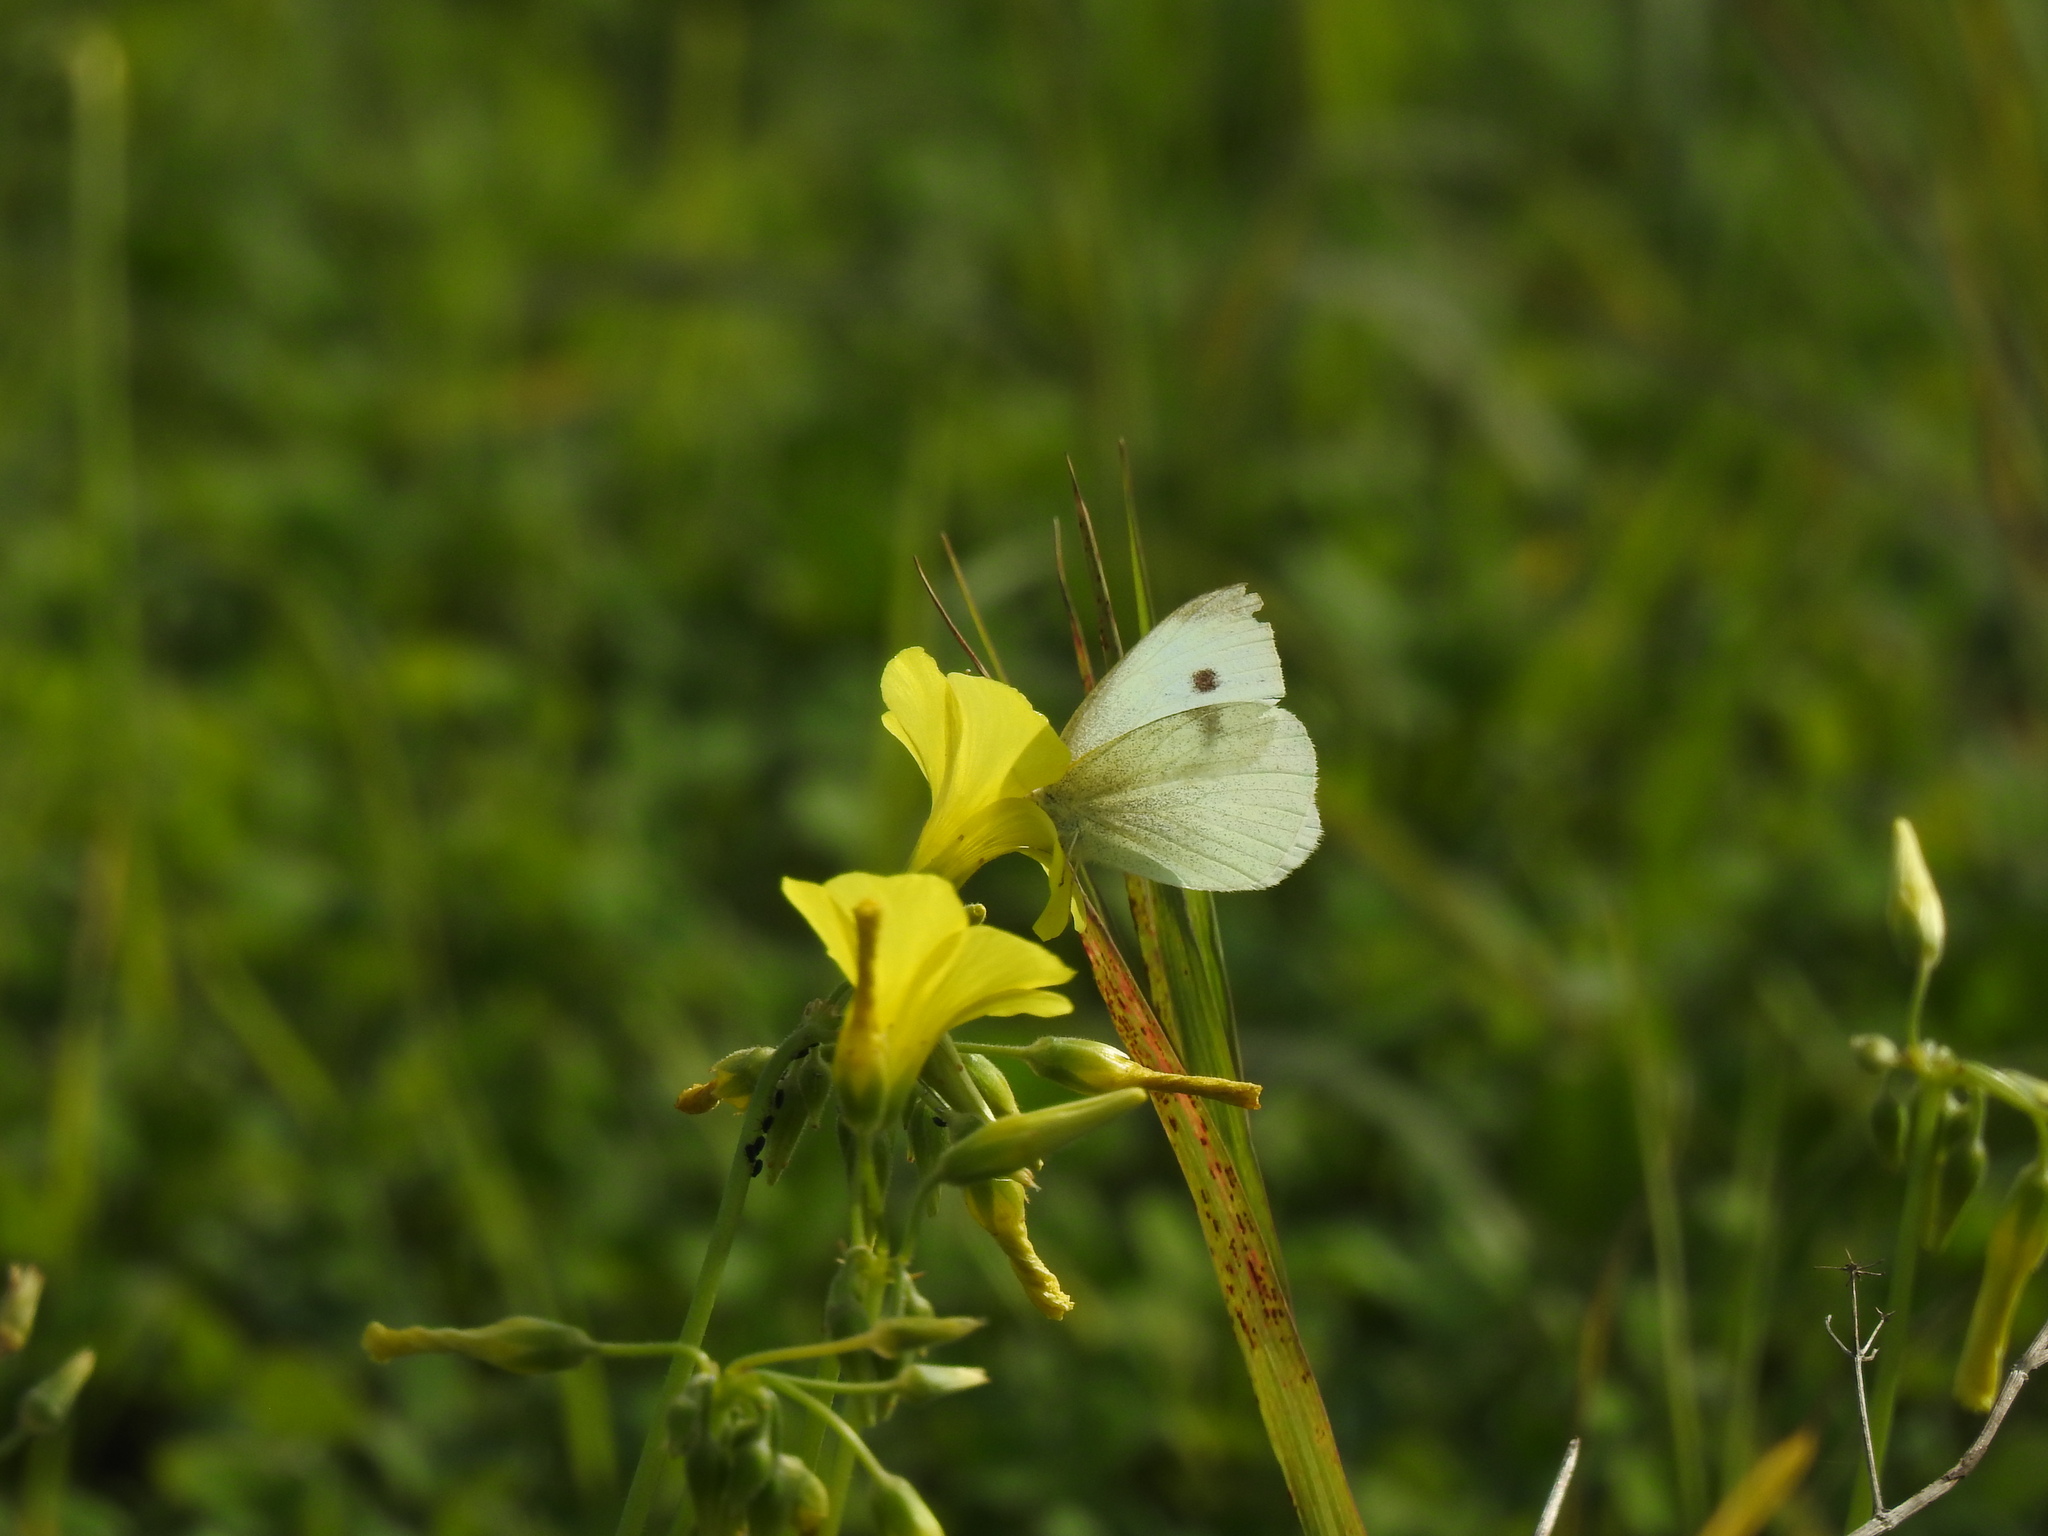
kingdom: Animalia
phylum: Arthropoda
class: Insecta
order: Lepidoptera
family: Pieridae
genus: Pieris
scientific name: Pieris rapae
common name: Small white
